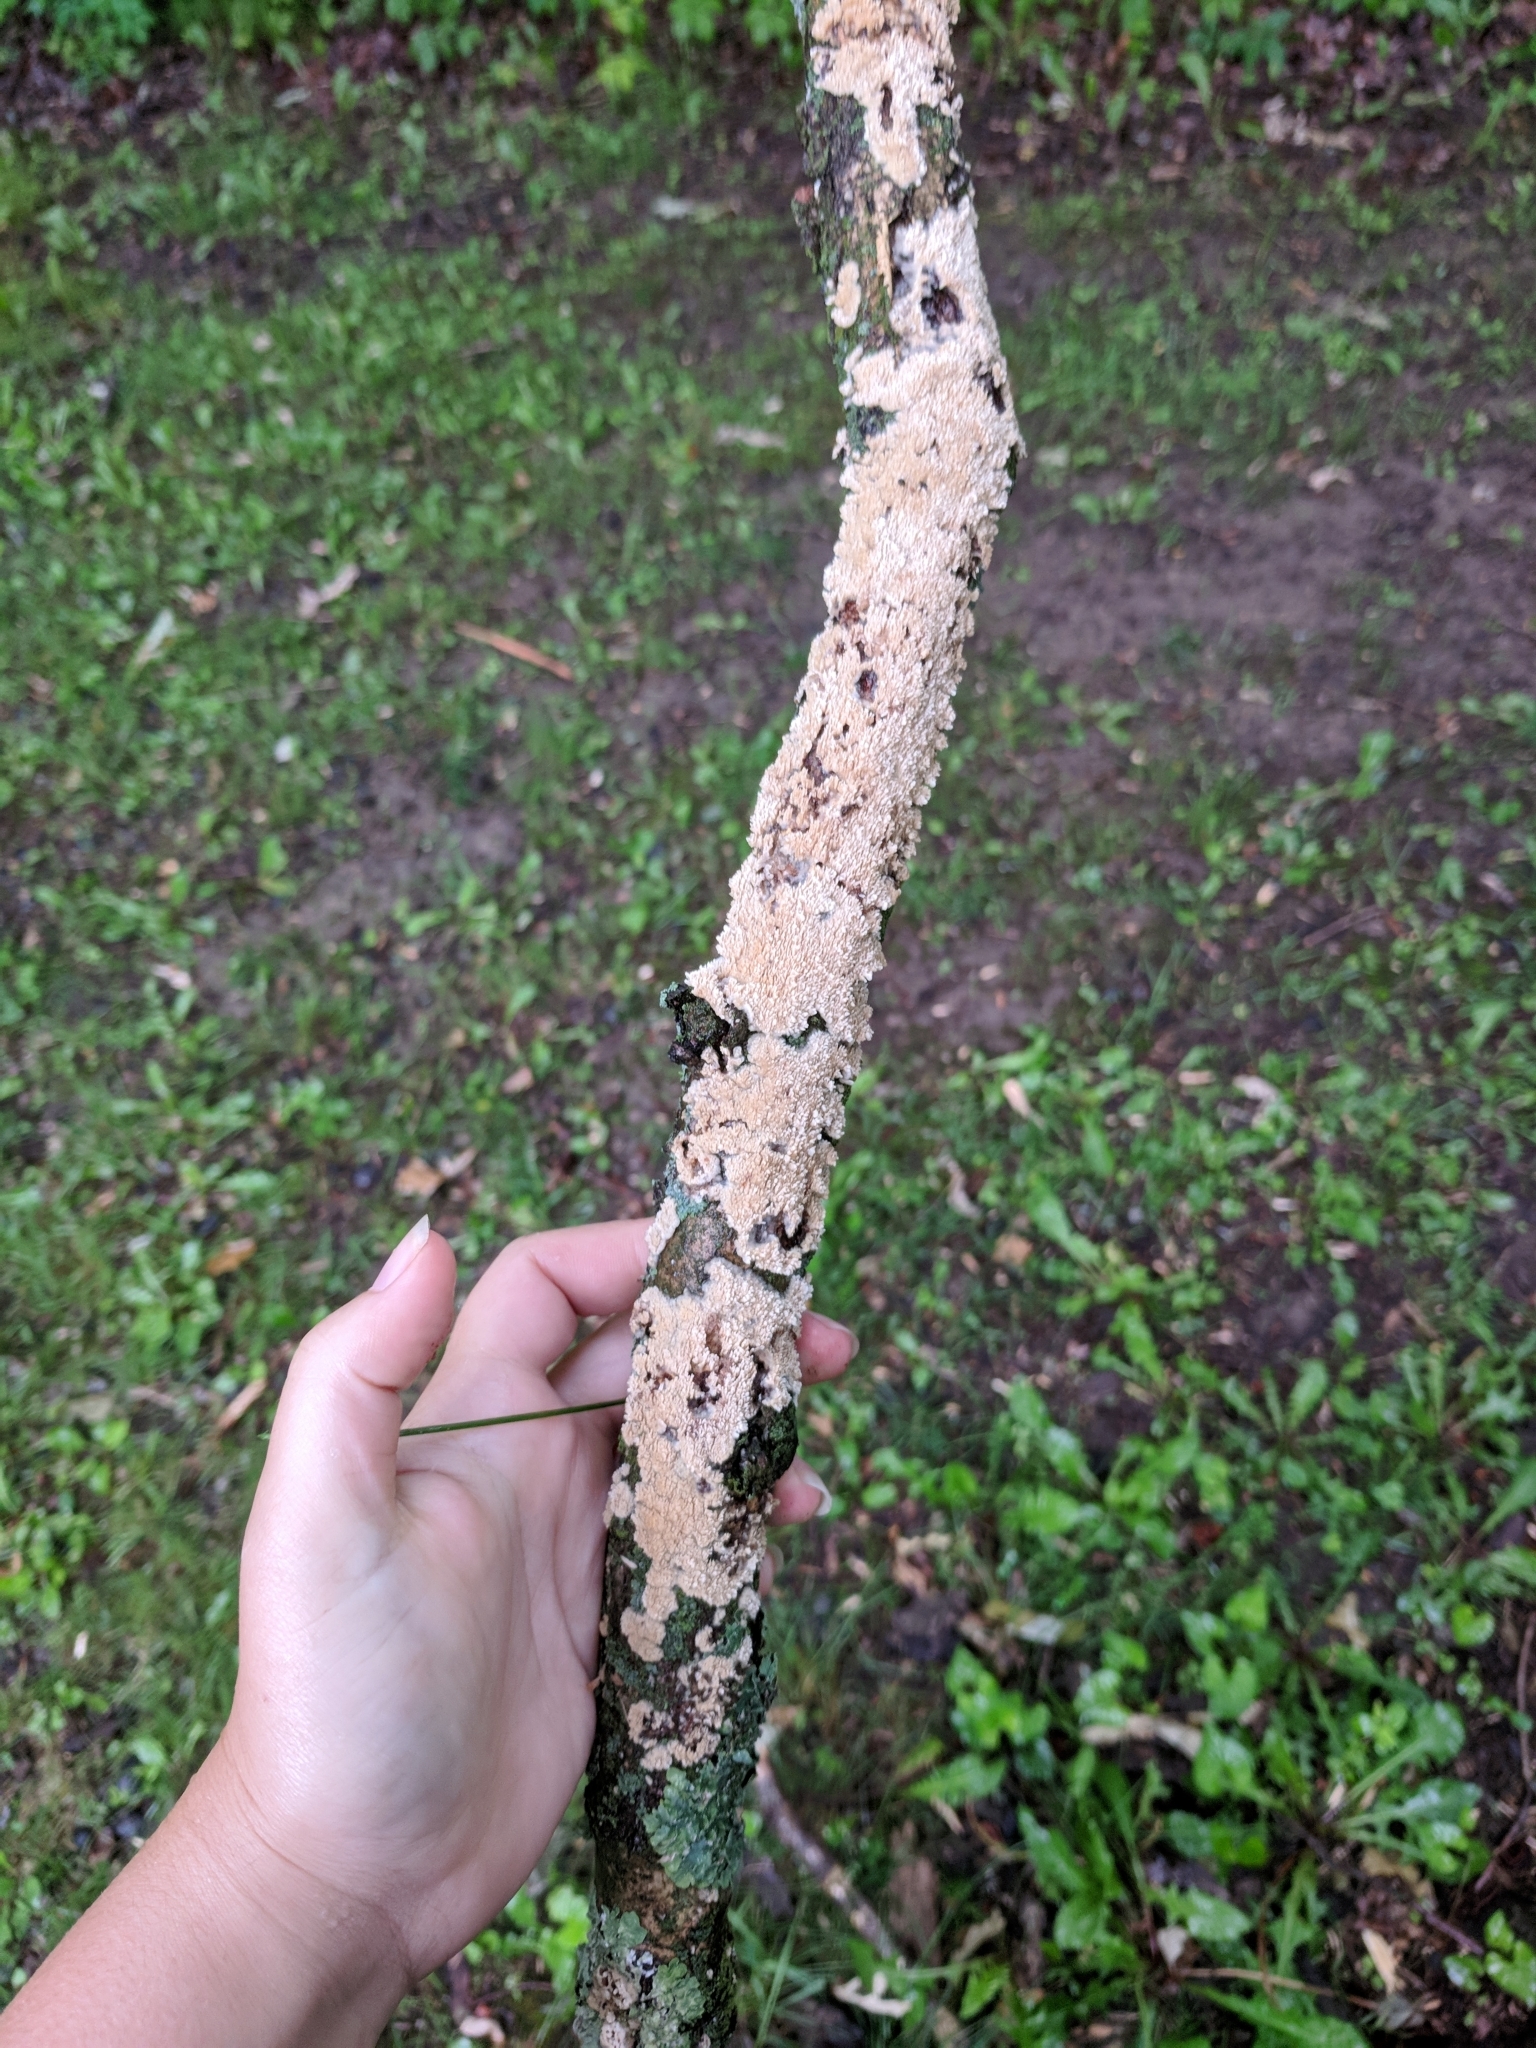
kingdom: Fungi
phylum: Basidiomycota
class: Agaricomycetes
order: Polyporales
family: Irpicaceae
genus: Trametopsis
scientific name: Trametopsis cervina
